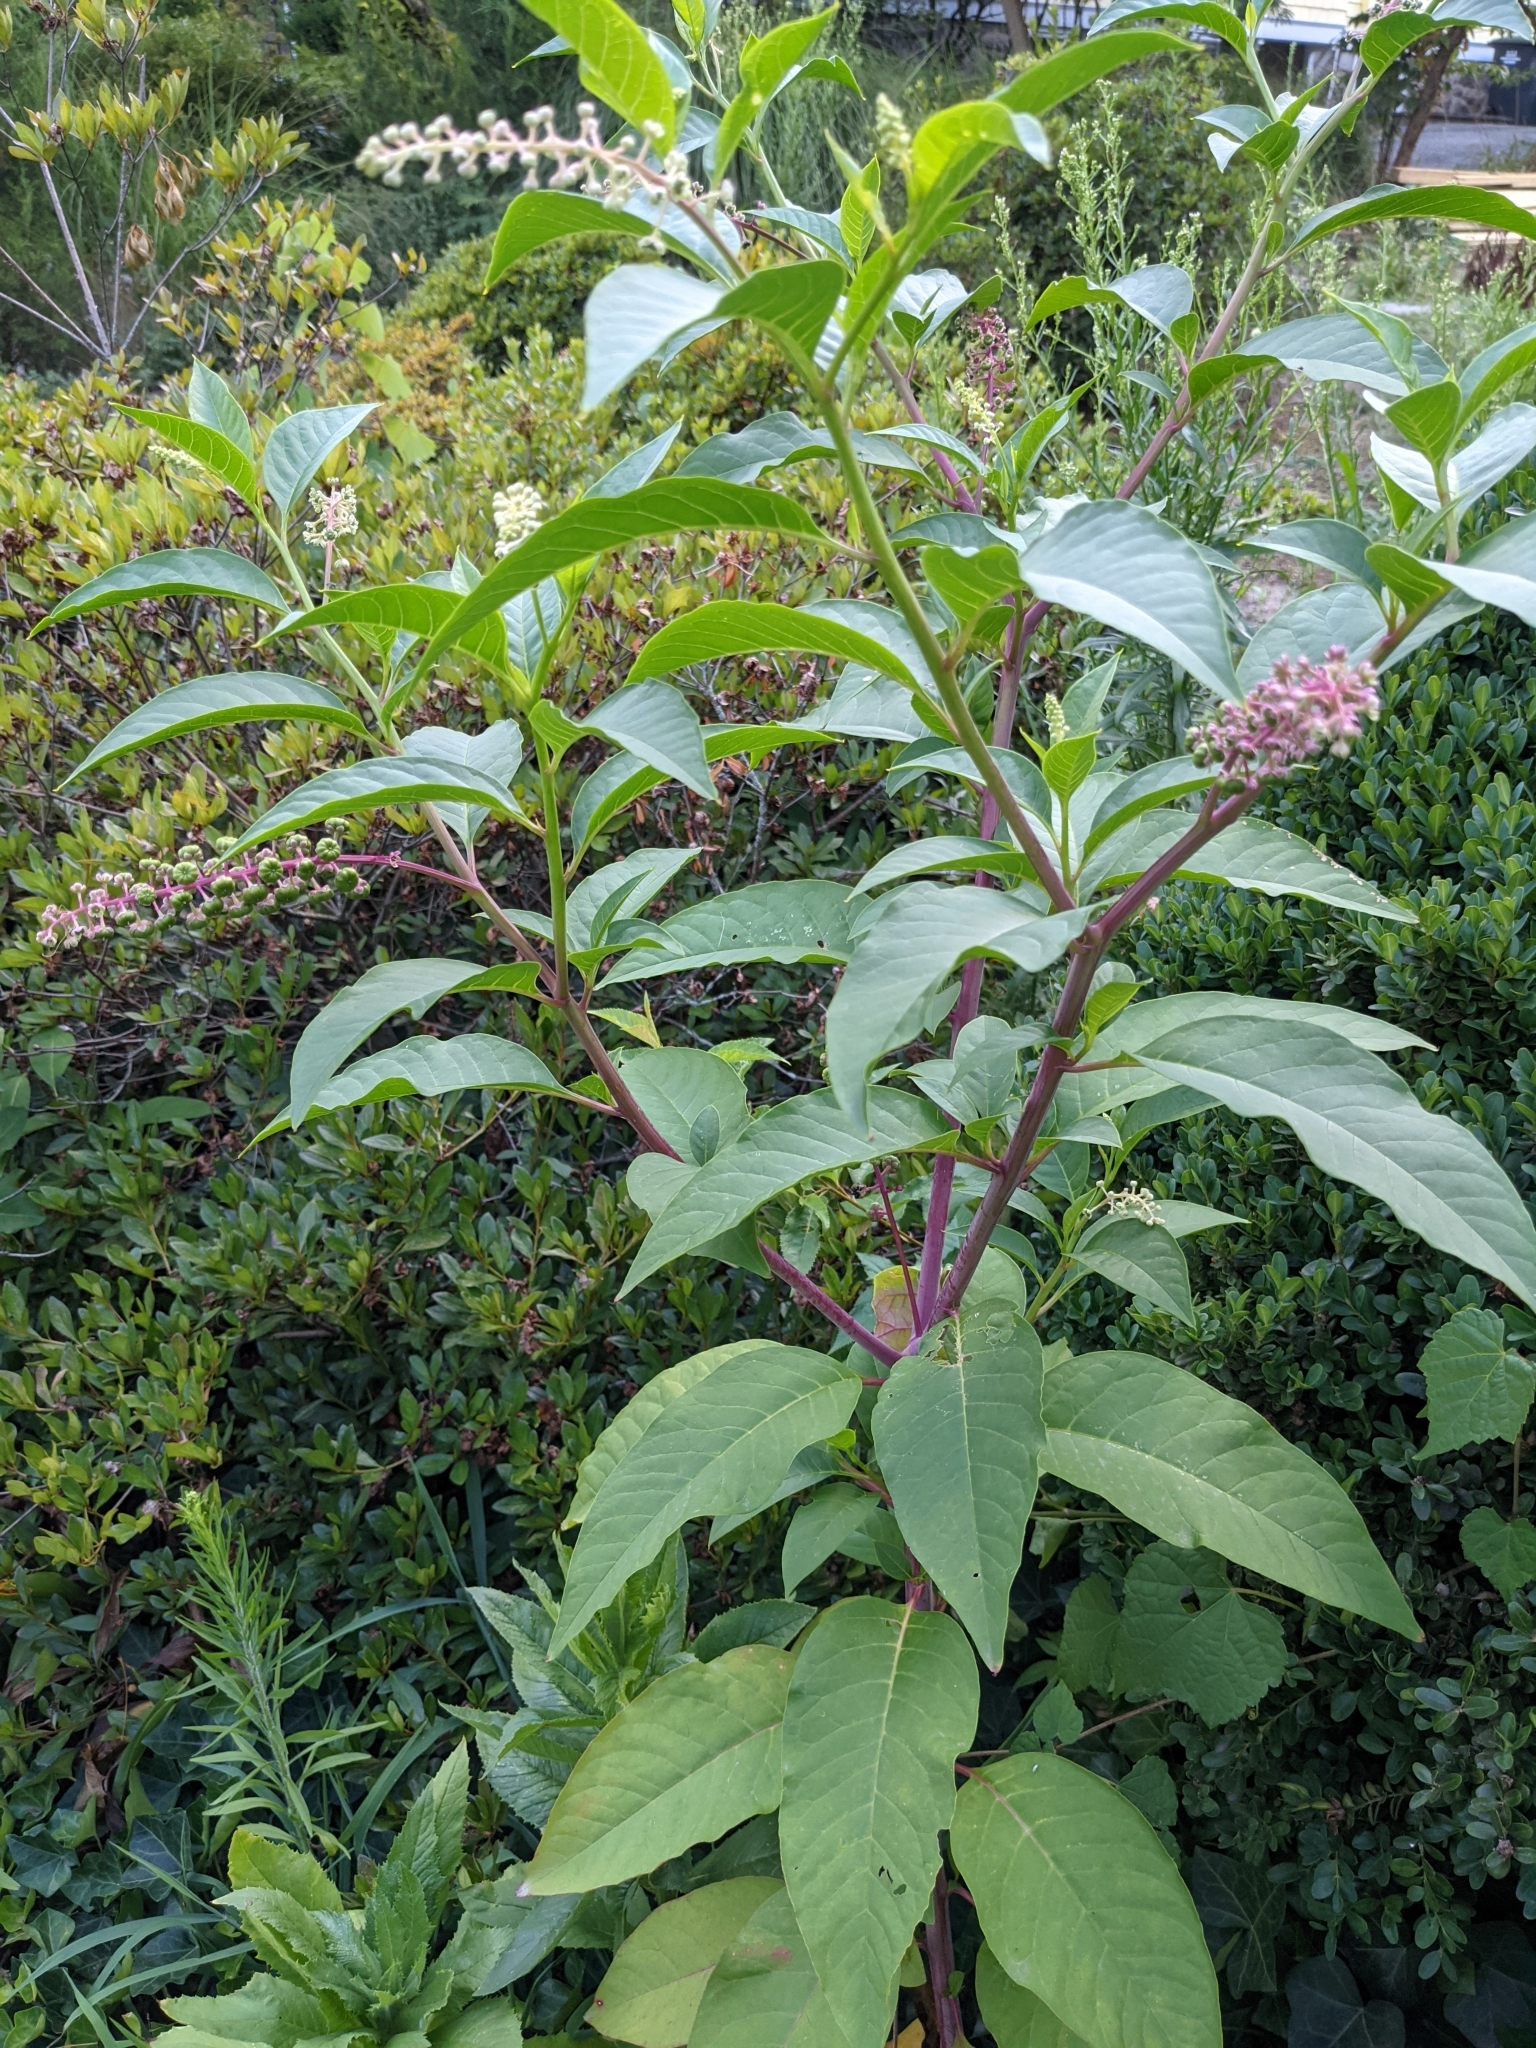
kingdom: Plantae
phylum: Tracheophyta
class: Magnoliopsida
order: Caryophyllales
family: Phytolaccaceae
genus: Phytolacca
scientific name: Phytolacca americana
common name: American pokeweed
